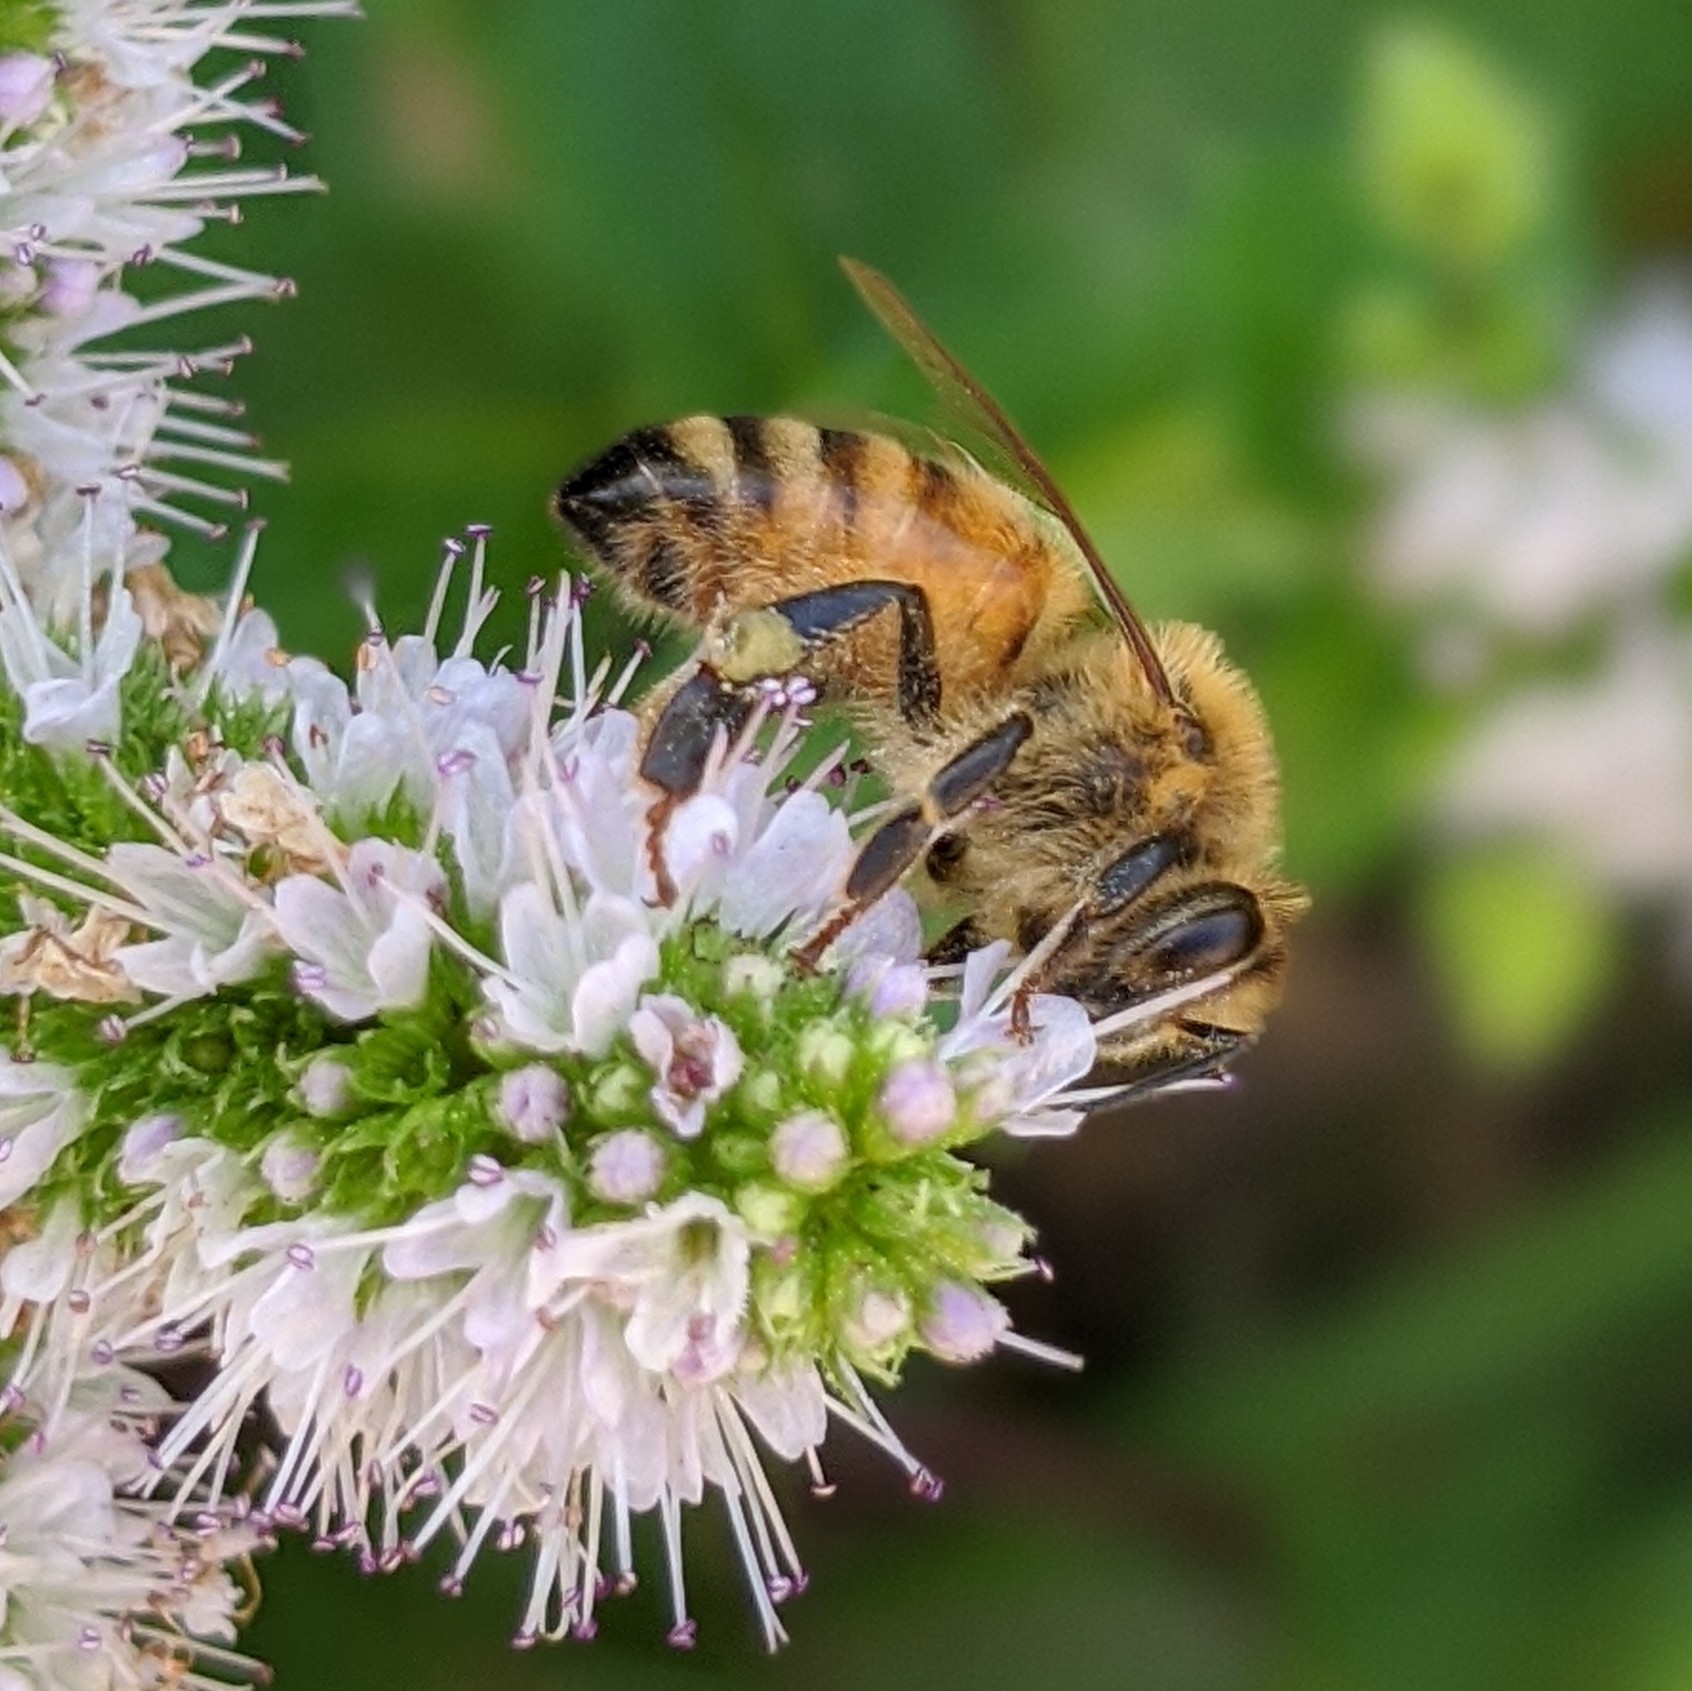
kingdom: Animalia
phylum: Arthropoda
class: Insecta
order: Hymenoptera
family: Apidae
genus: Apis
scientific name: Apis mellifera
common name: Honey bee
